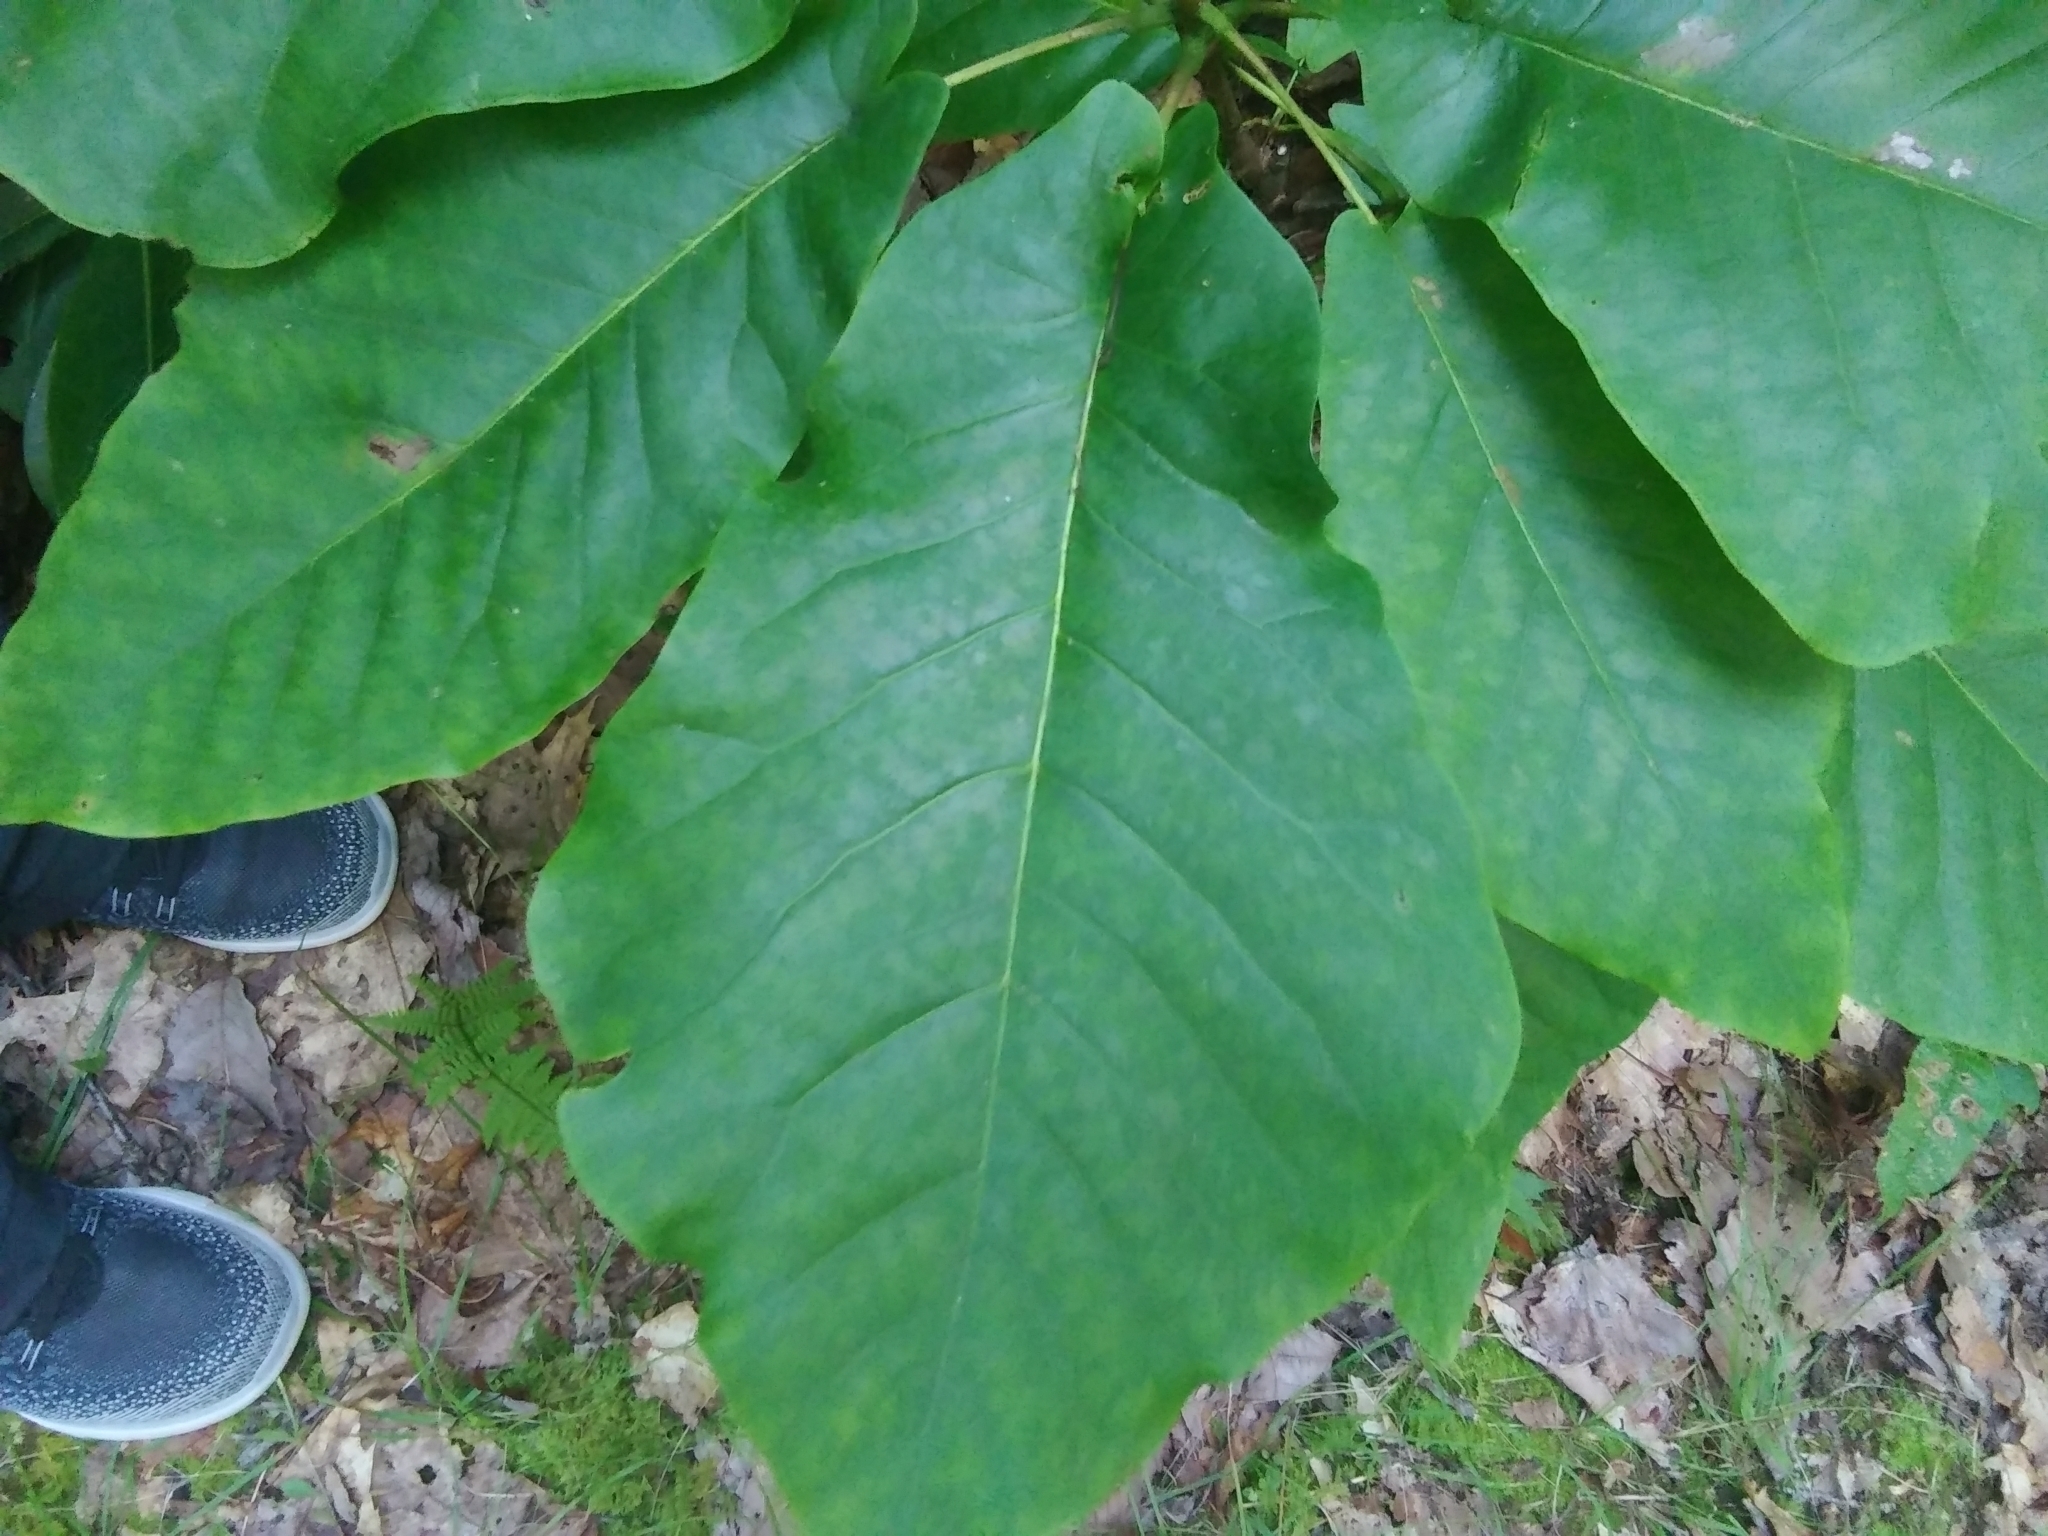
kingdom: Plantae
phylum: Tracheophyta
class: Magnoliopsida
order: Magnoliales
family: Magnoliaceae
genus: Magnolia
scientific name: Magnolia fraseri
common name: Fraser's magnolia
